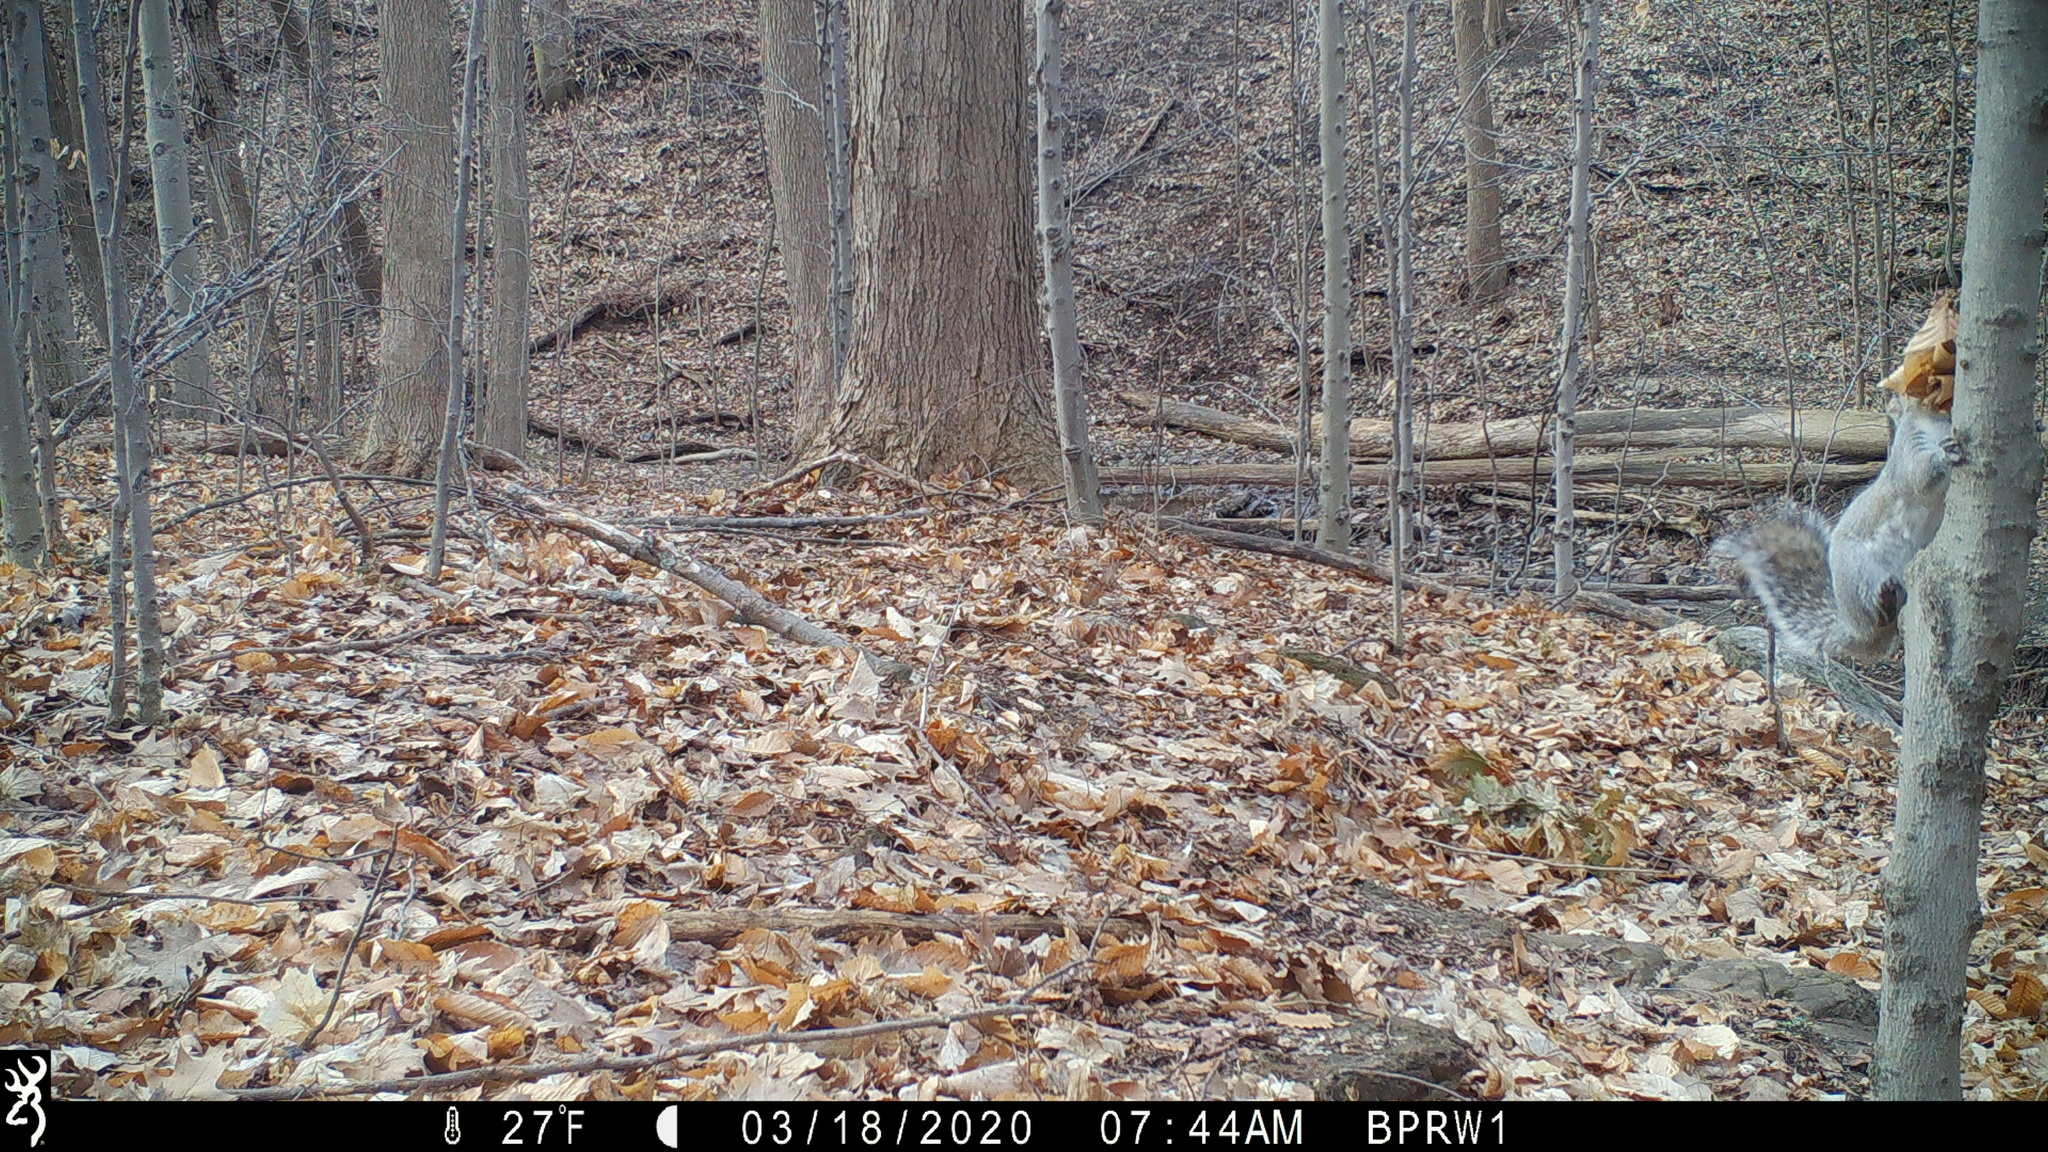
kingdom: Animalia
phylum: Chordata
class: Mammalia
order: Rodentia
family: Sciuridae
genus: Sciurus
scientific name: Sciurus carolinensis
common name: Eastern gray squirrel
